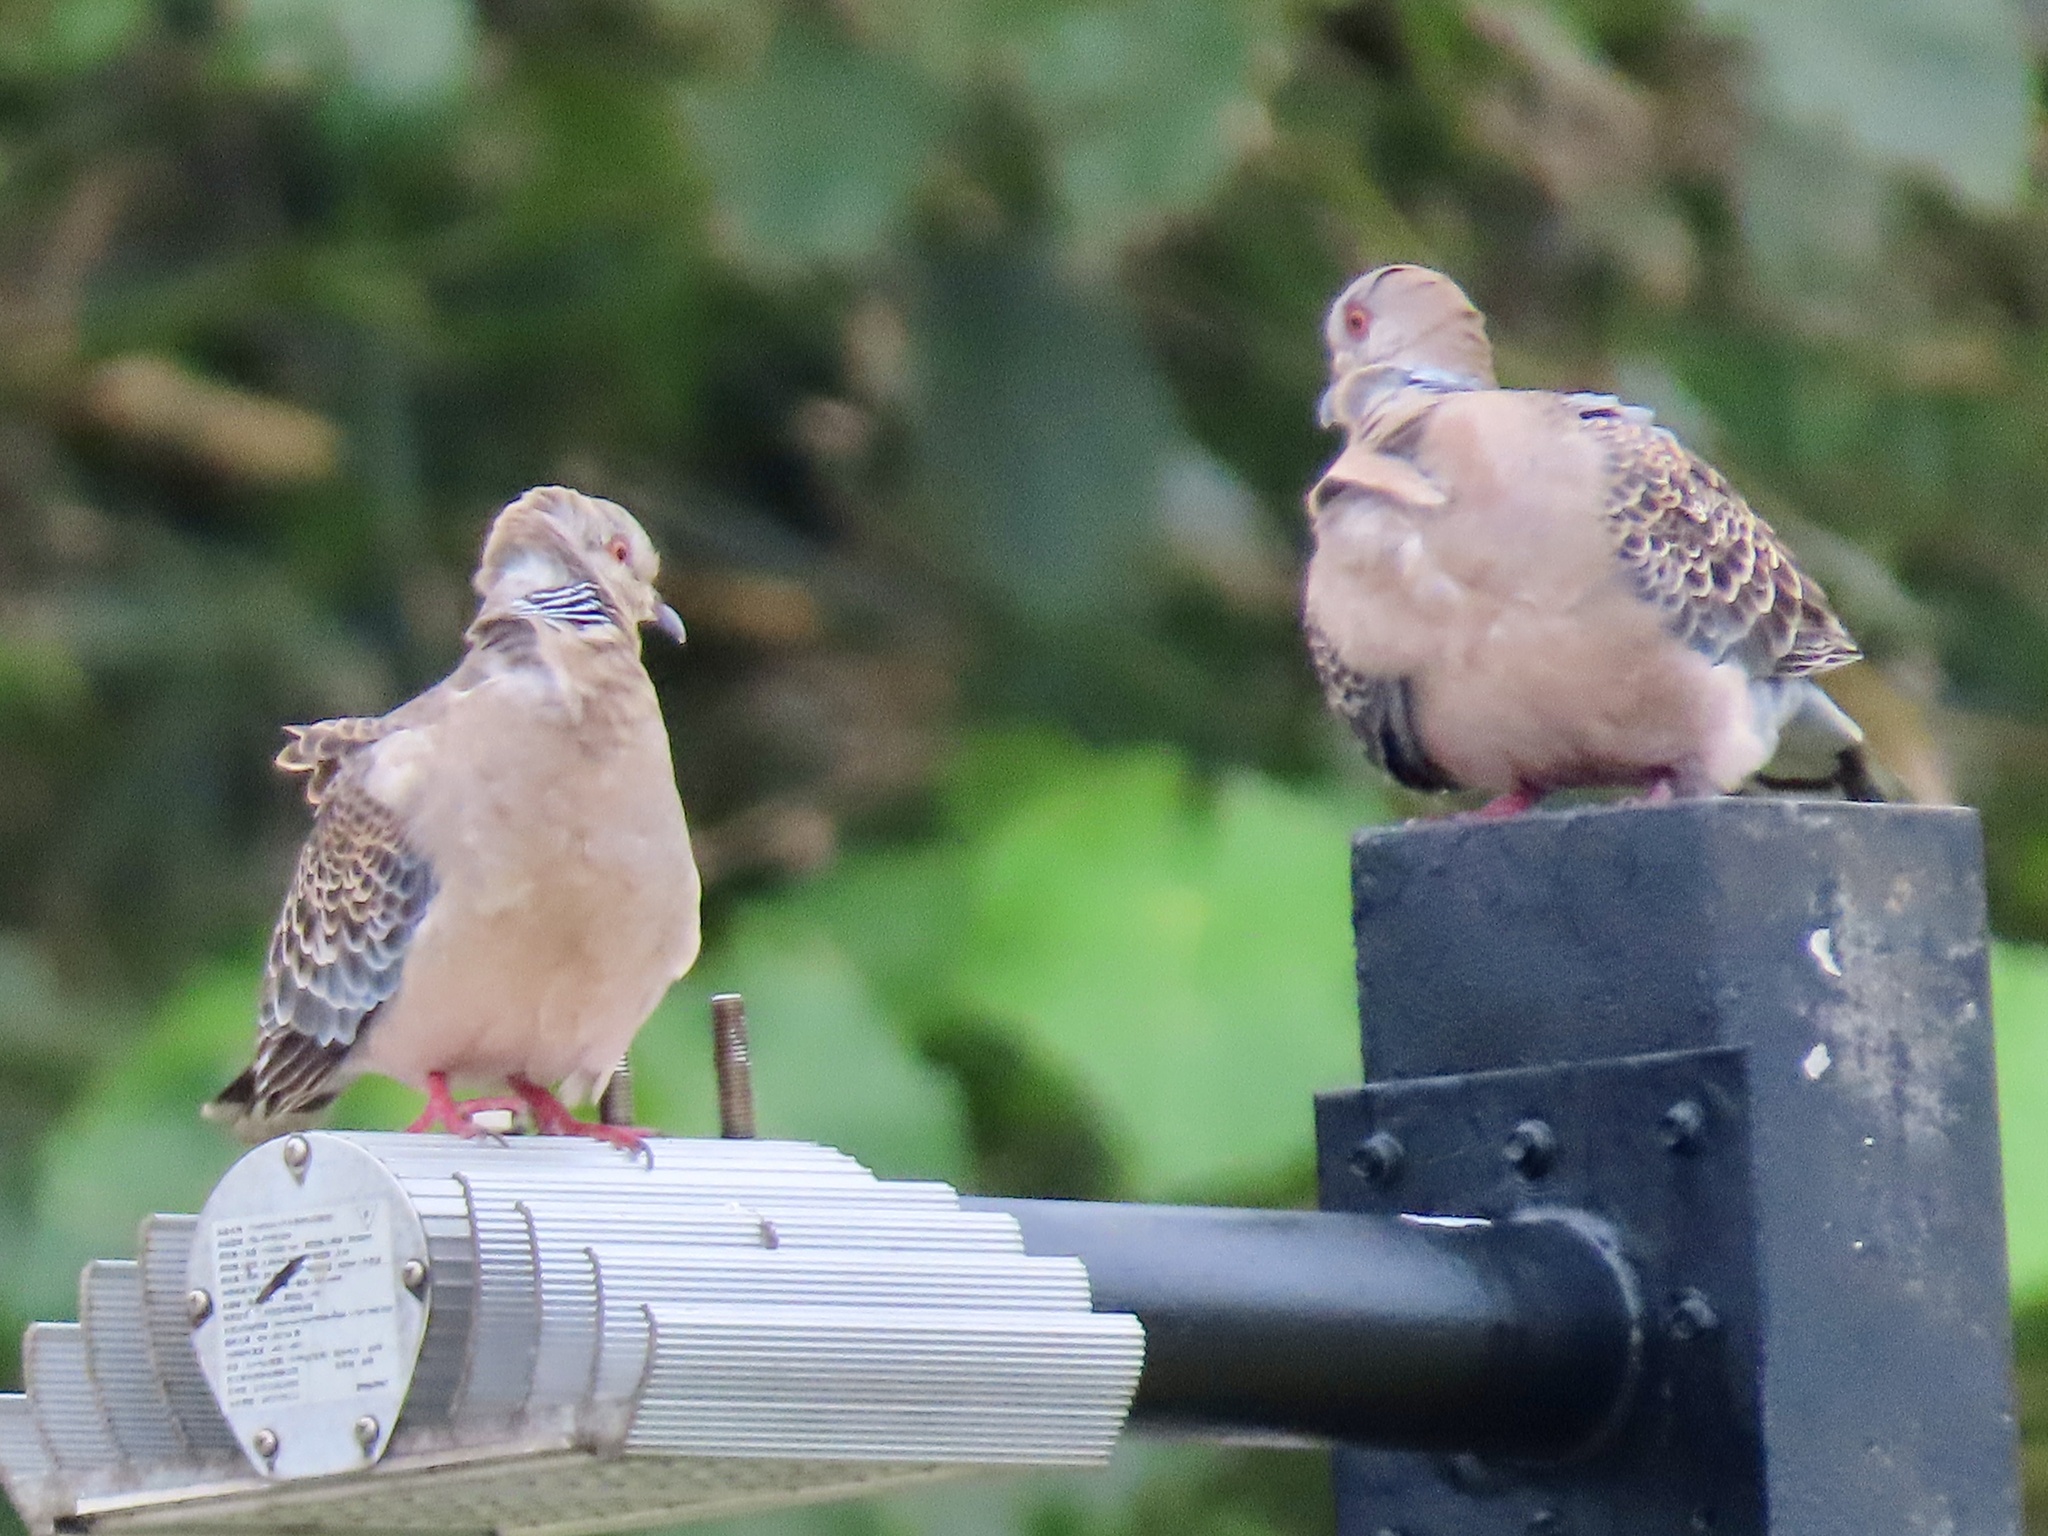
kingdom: Animalia
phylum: Chordata
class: Aves
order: Columbiformes
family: Columbidae
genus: Streptopelia
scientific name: Streptopelia orientalis
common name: Oriental turtle dove
